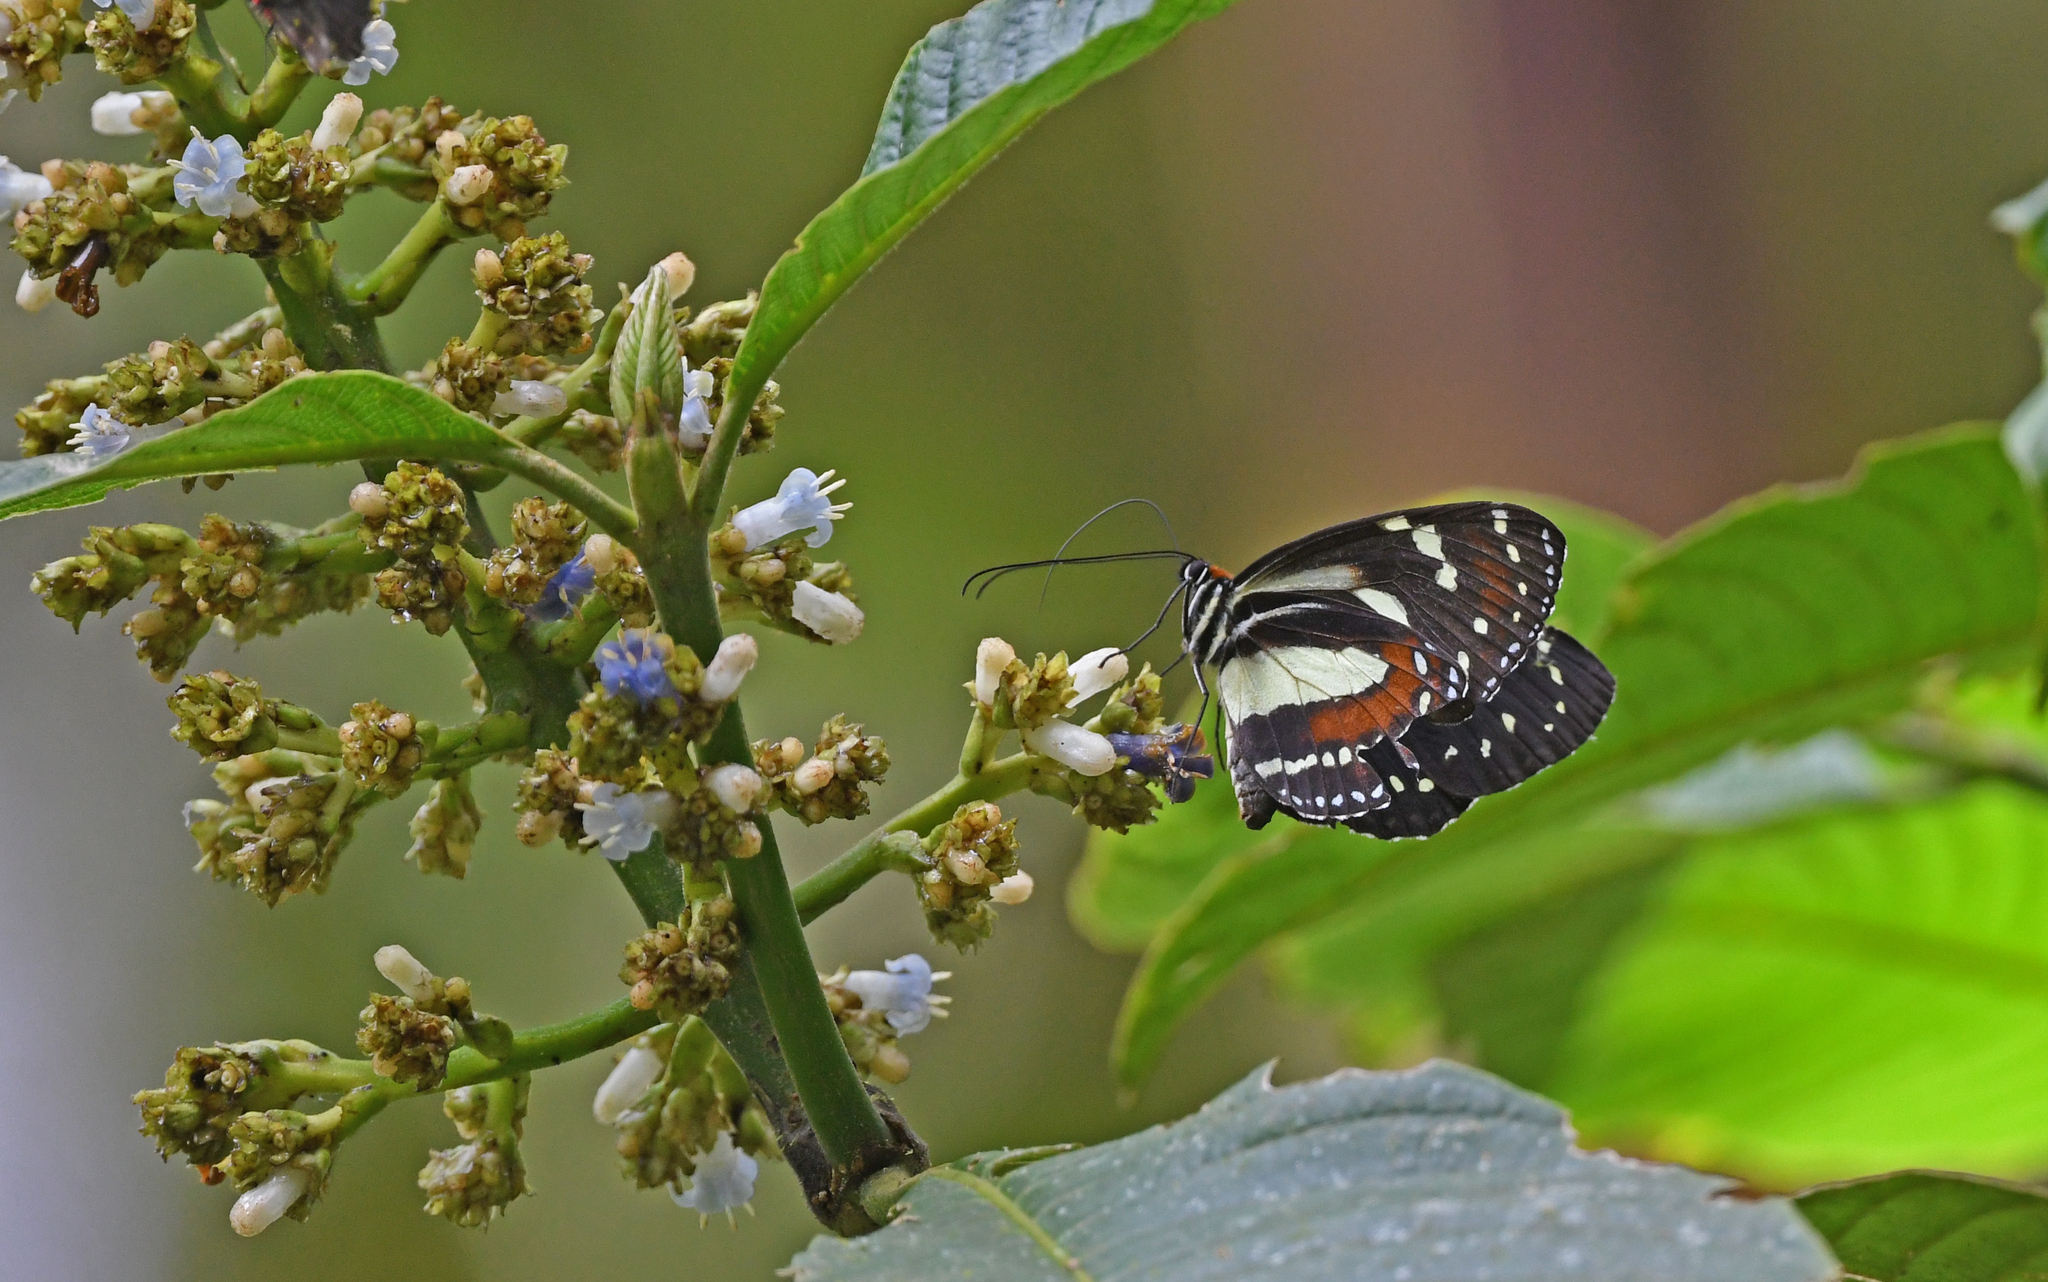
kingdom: Animalia
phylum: Arthropoda
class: Insecta
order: Lepidoptera
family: Nymphalidae
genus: Elzunia
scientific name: Elzunia
